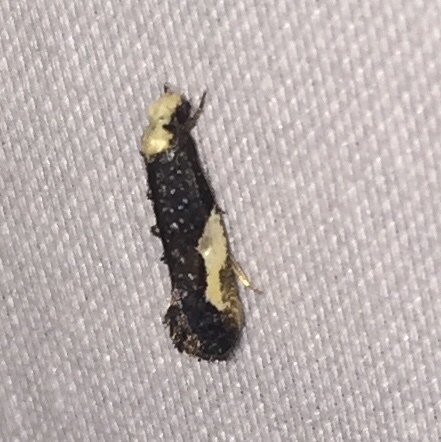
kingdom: Animalia
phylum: Arthropoda
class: Insecta
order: Lepidoptera
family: Tineidae
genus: Monopis
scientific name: Monopis longella
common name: Pavlovski's monopis moth
